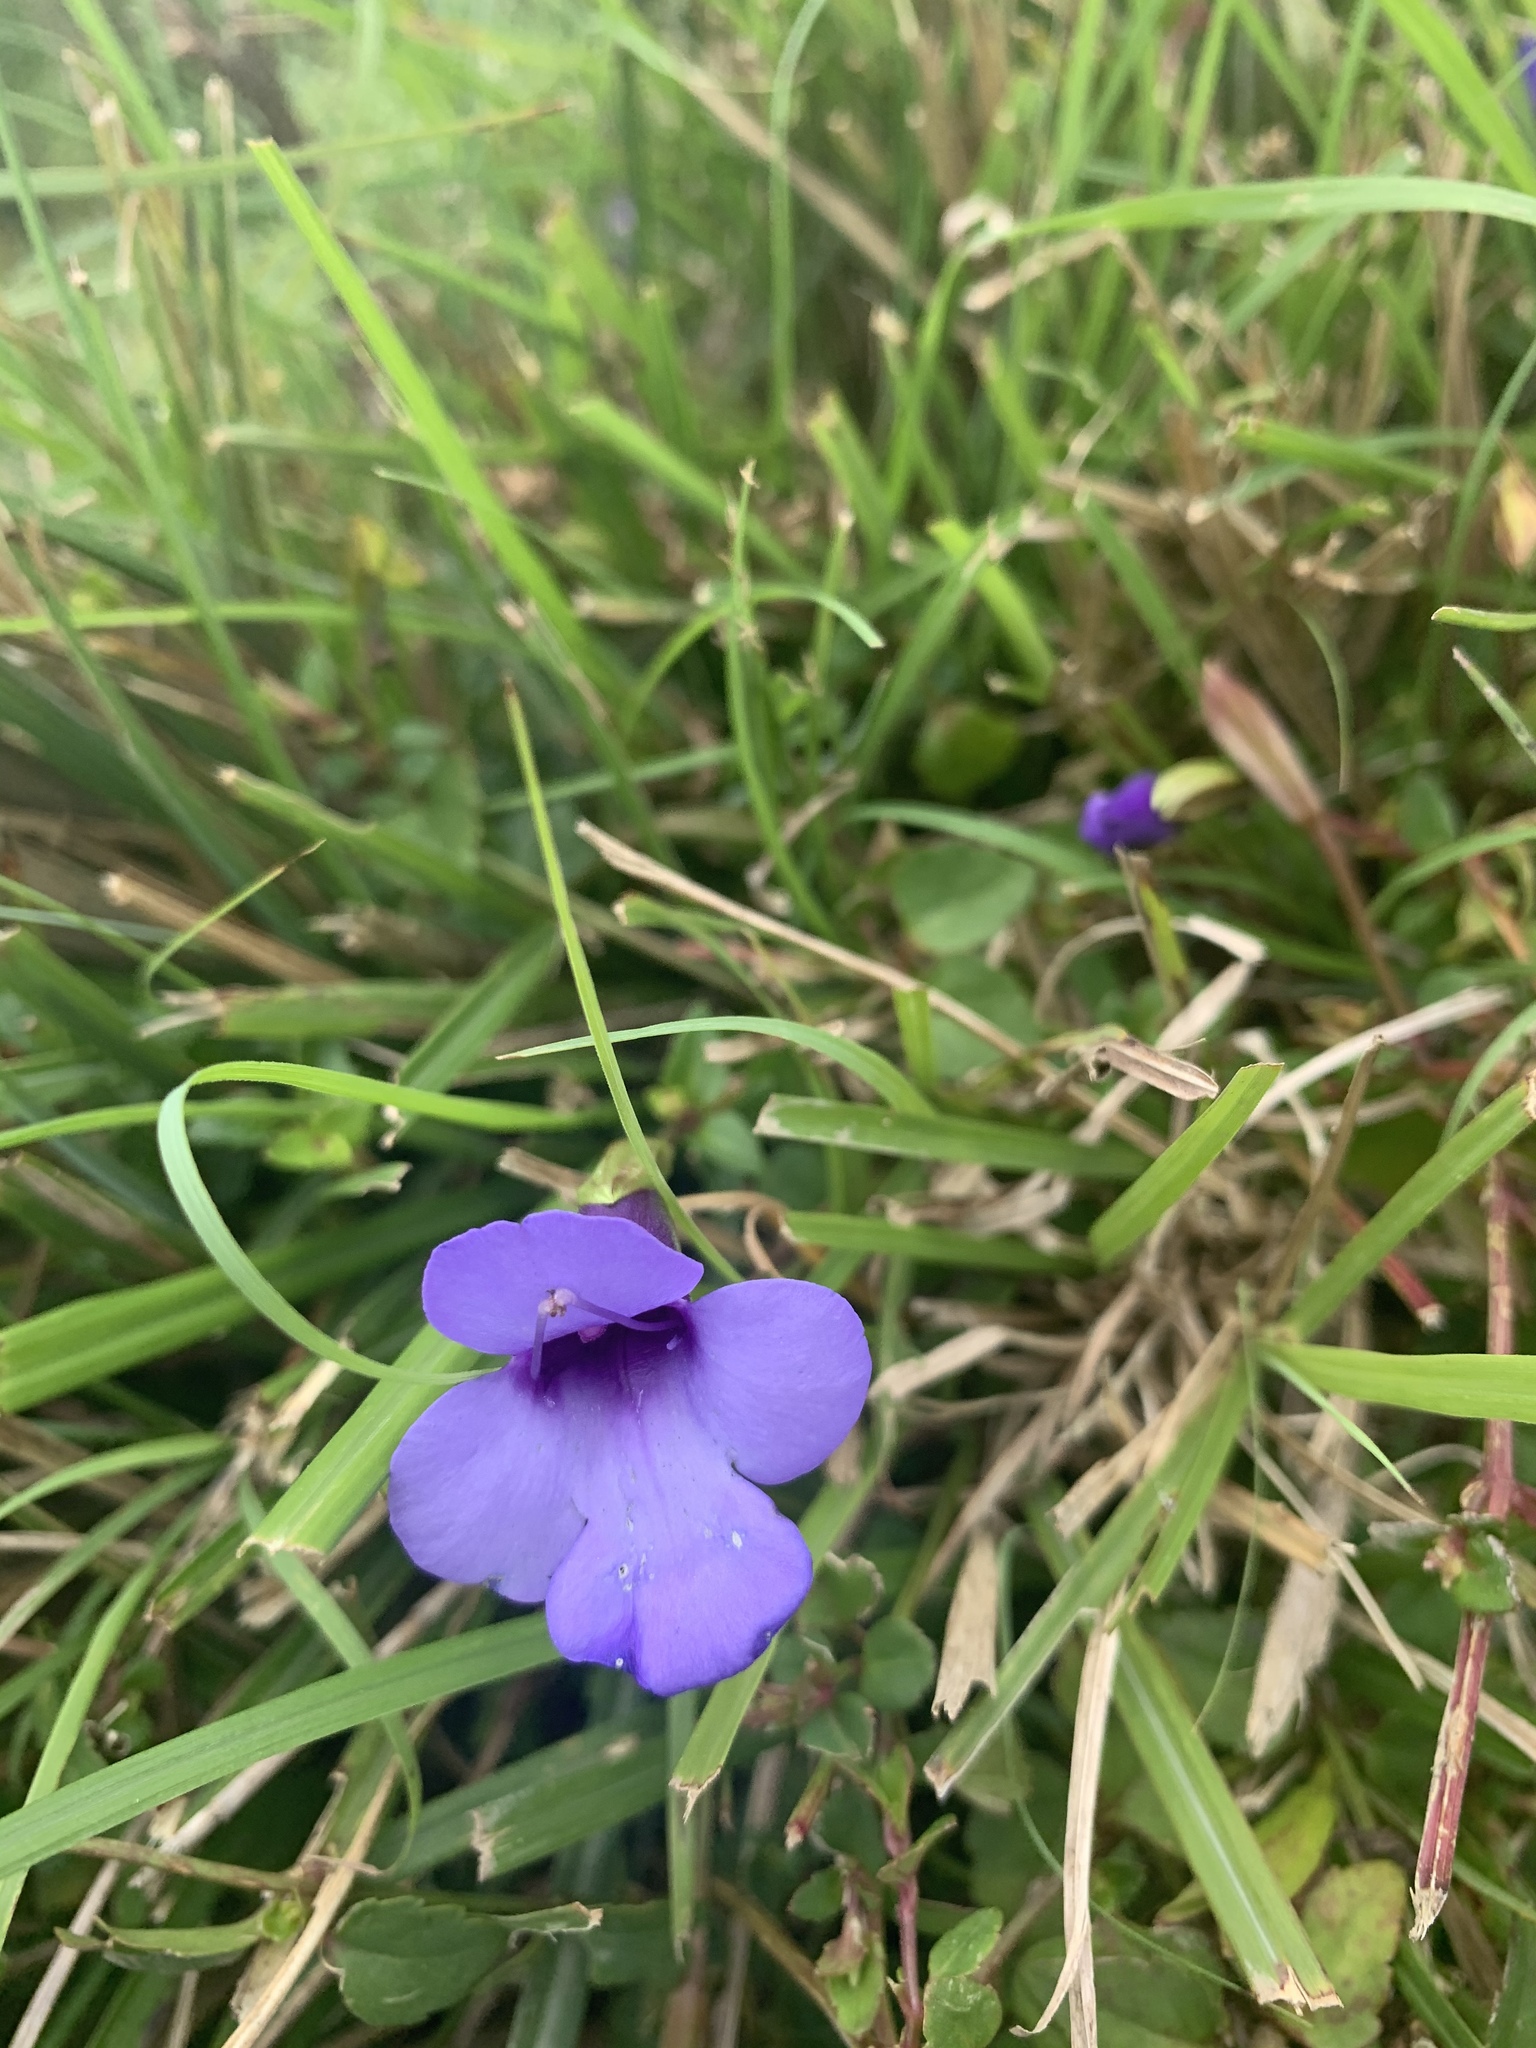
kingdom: Plantae
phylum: Tracheophyta
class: Magnoliopsida
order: Lamiales
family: Linderniaceae
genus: Torenia
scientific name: Torenia concolor
